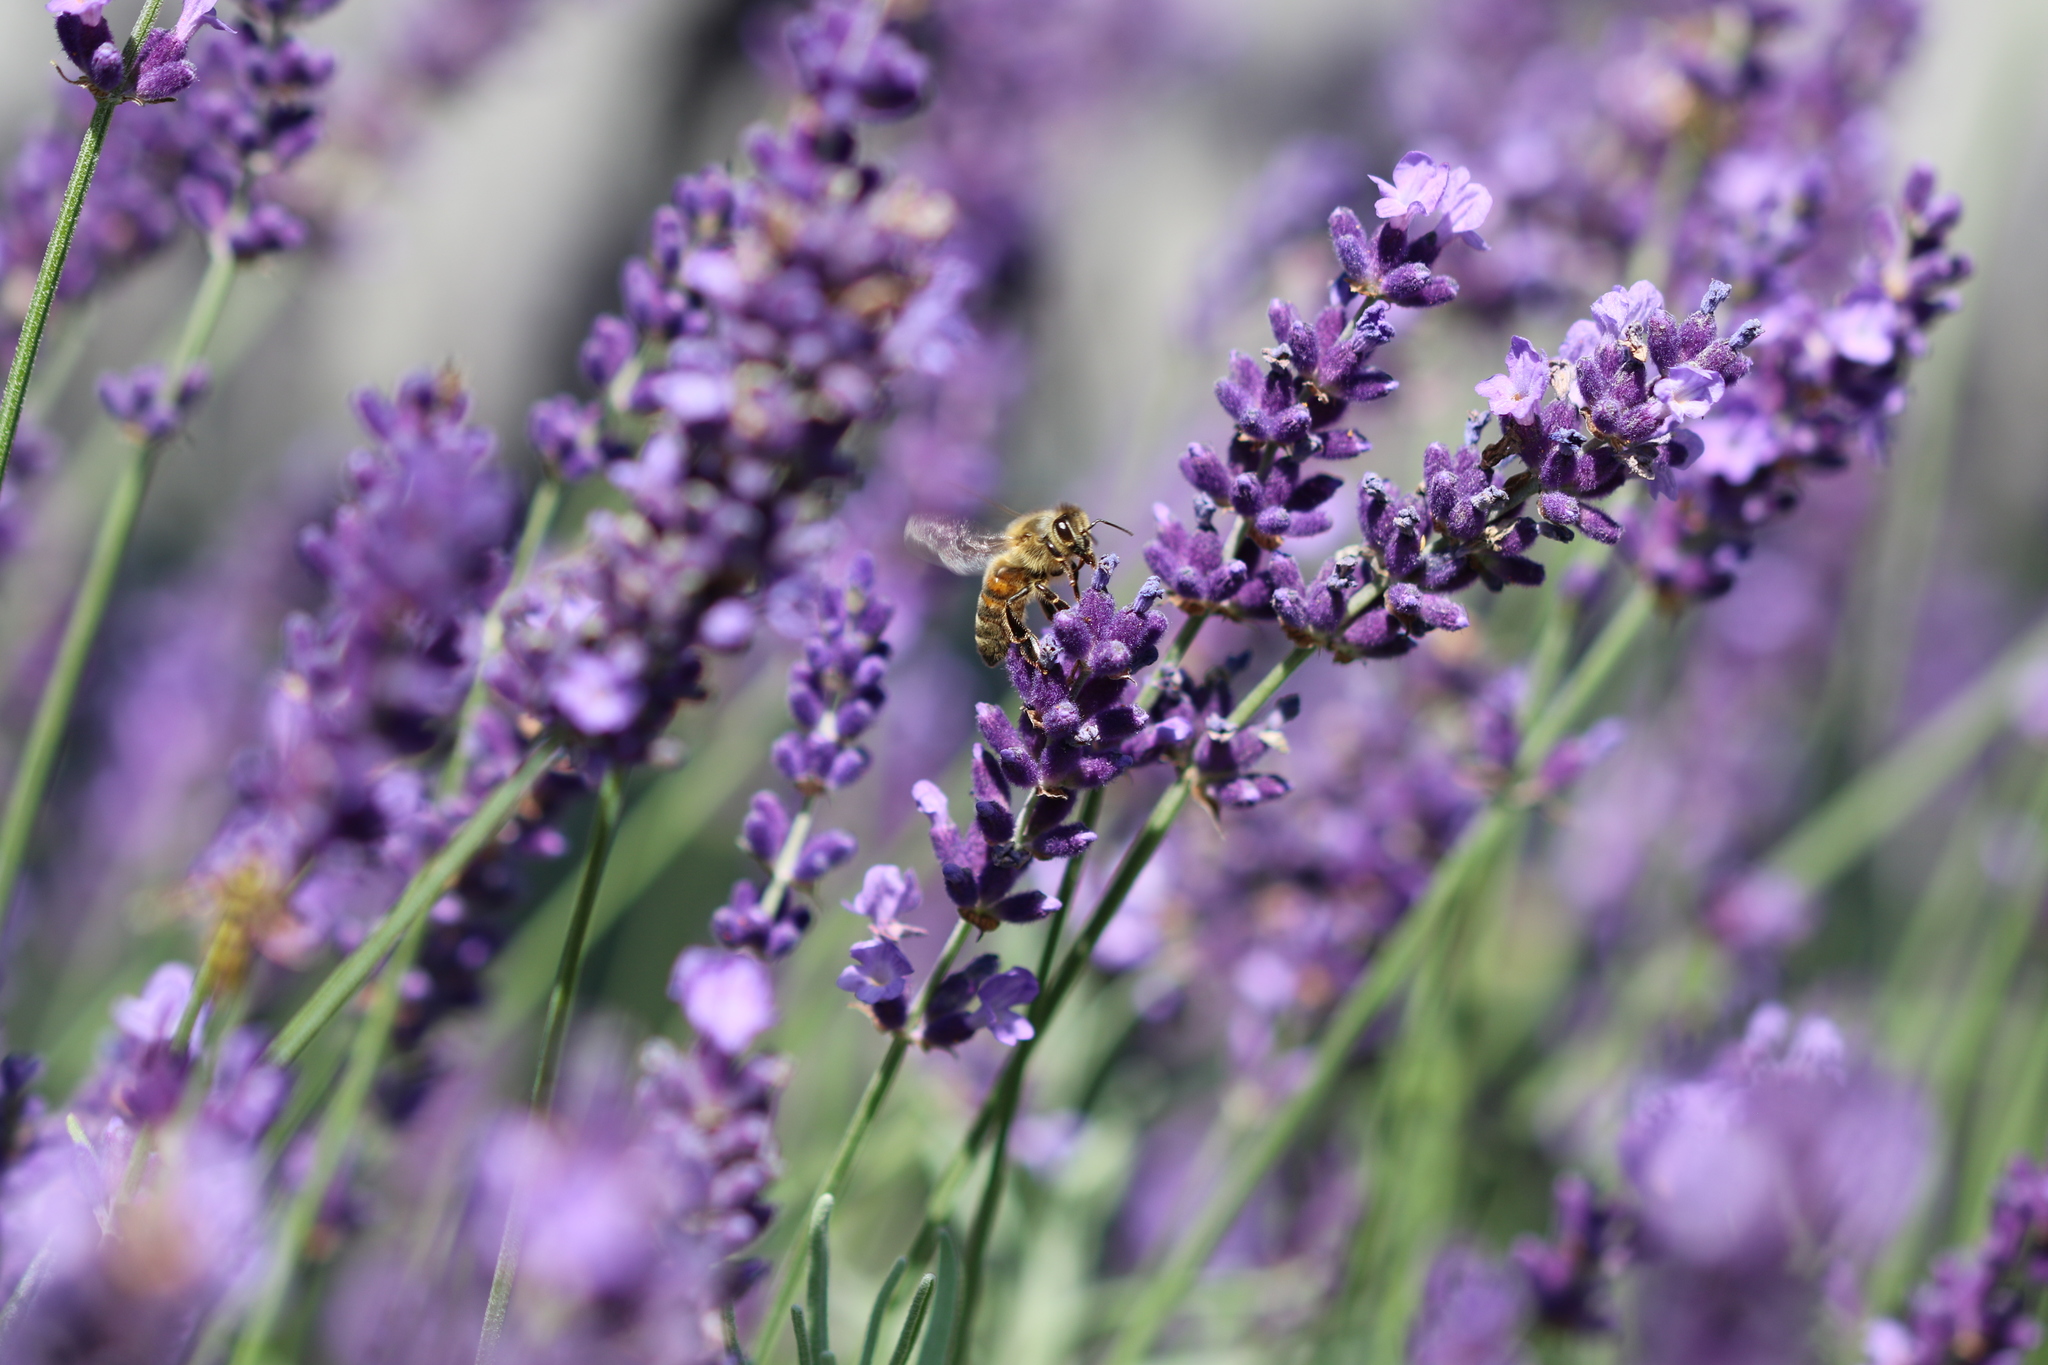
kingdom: Animalia
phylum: Arthropoda
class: Insecta
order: Hymenoptera
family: Apidae
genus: Apis
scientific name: Apis mellifera
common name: Honey bee
